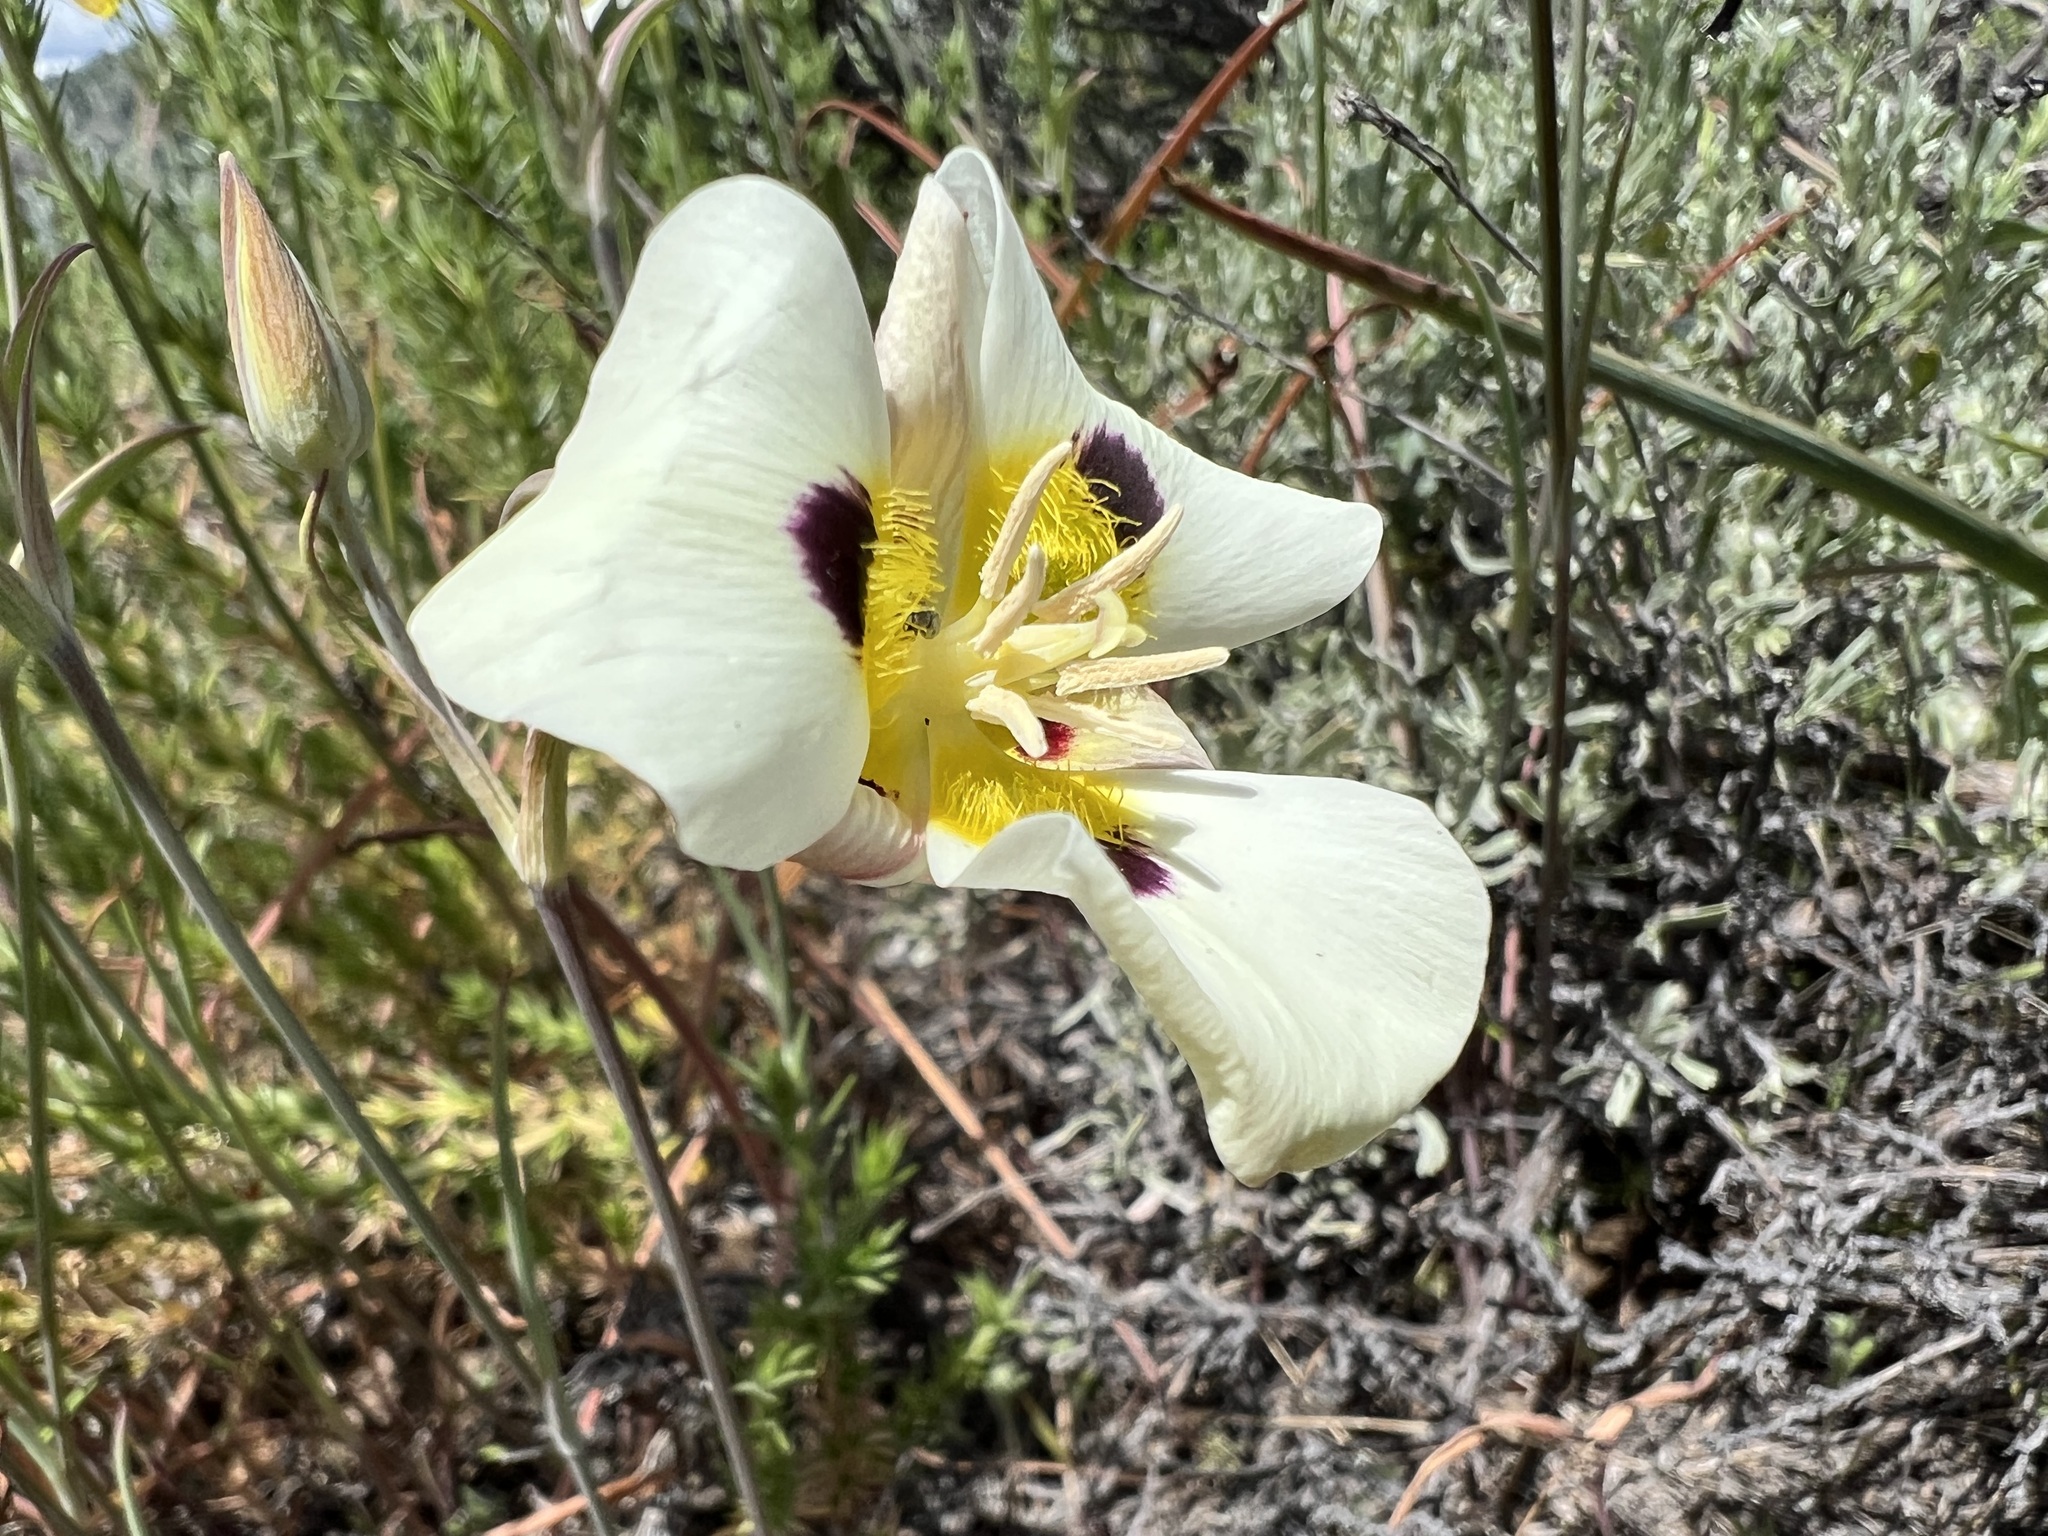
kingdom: Plantae
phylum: Tracheophyta
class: Liliopsida
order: Liliales
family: Liliaceae
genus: Calochortus
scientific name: Calochortus leichtlinii
